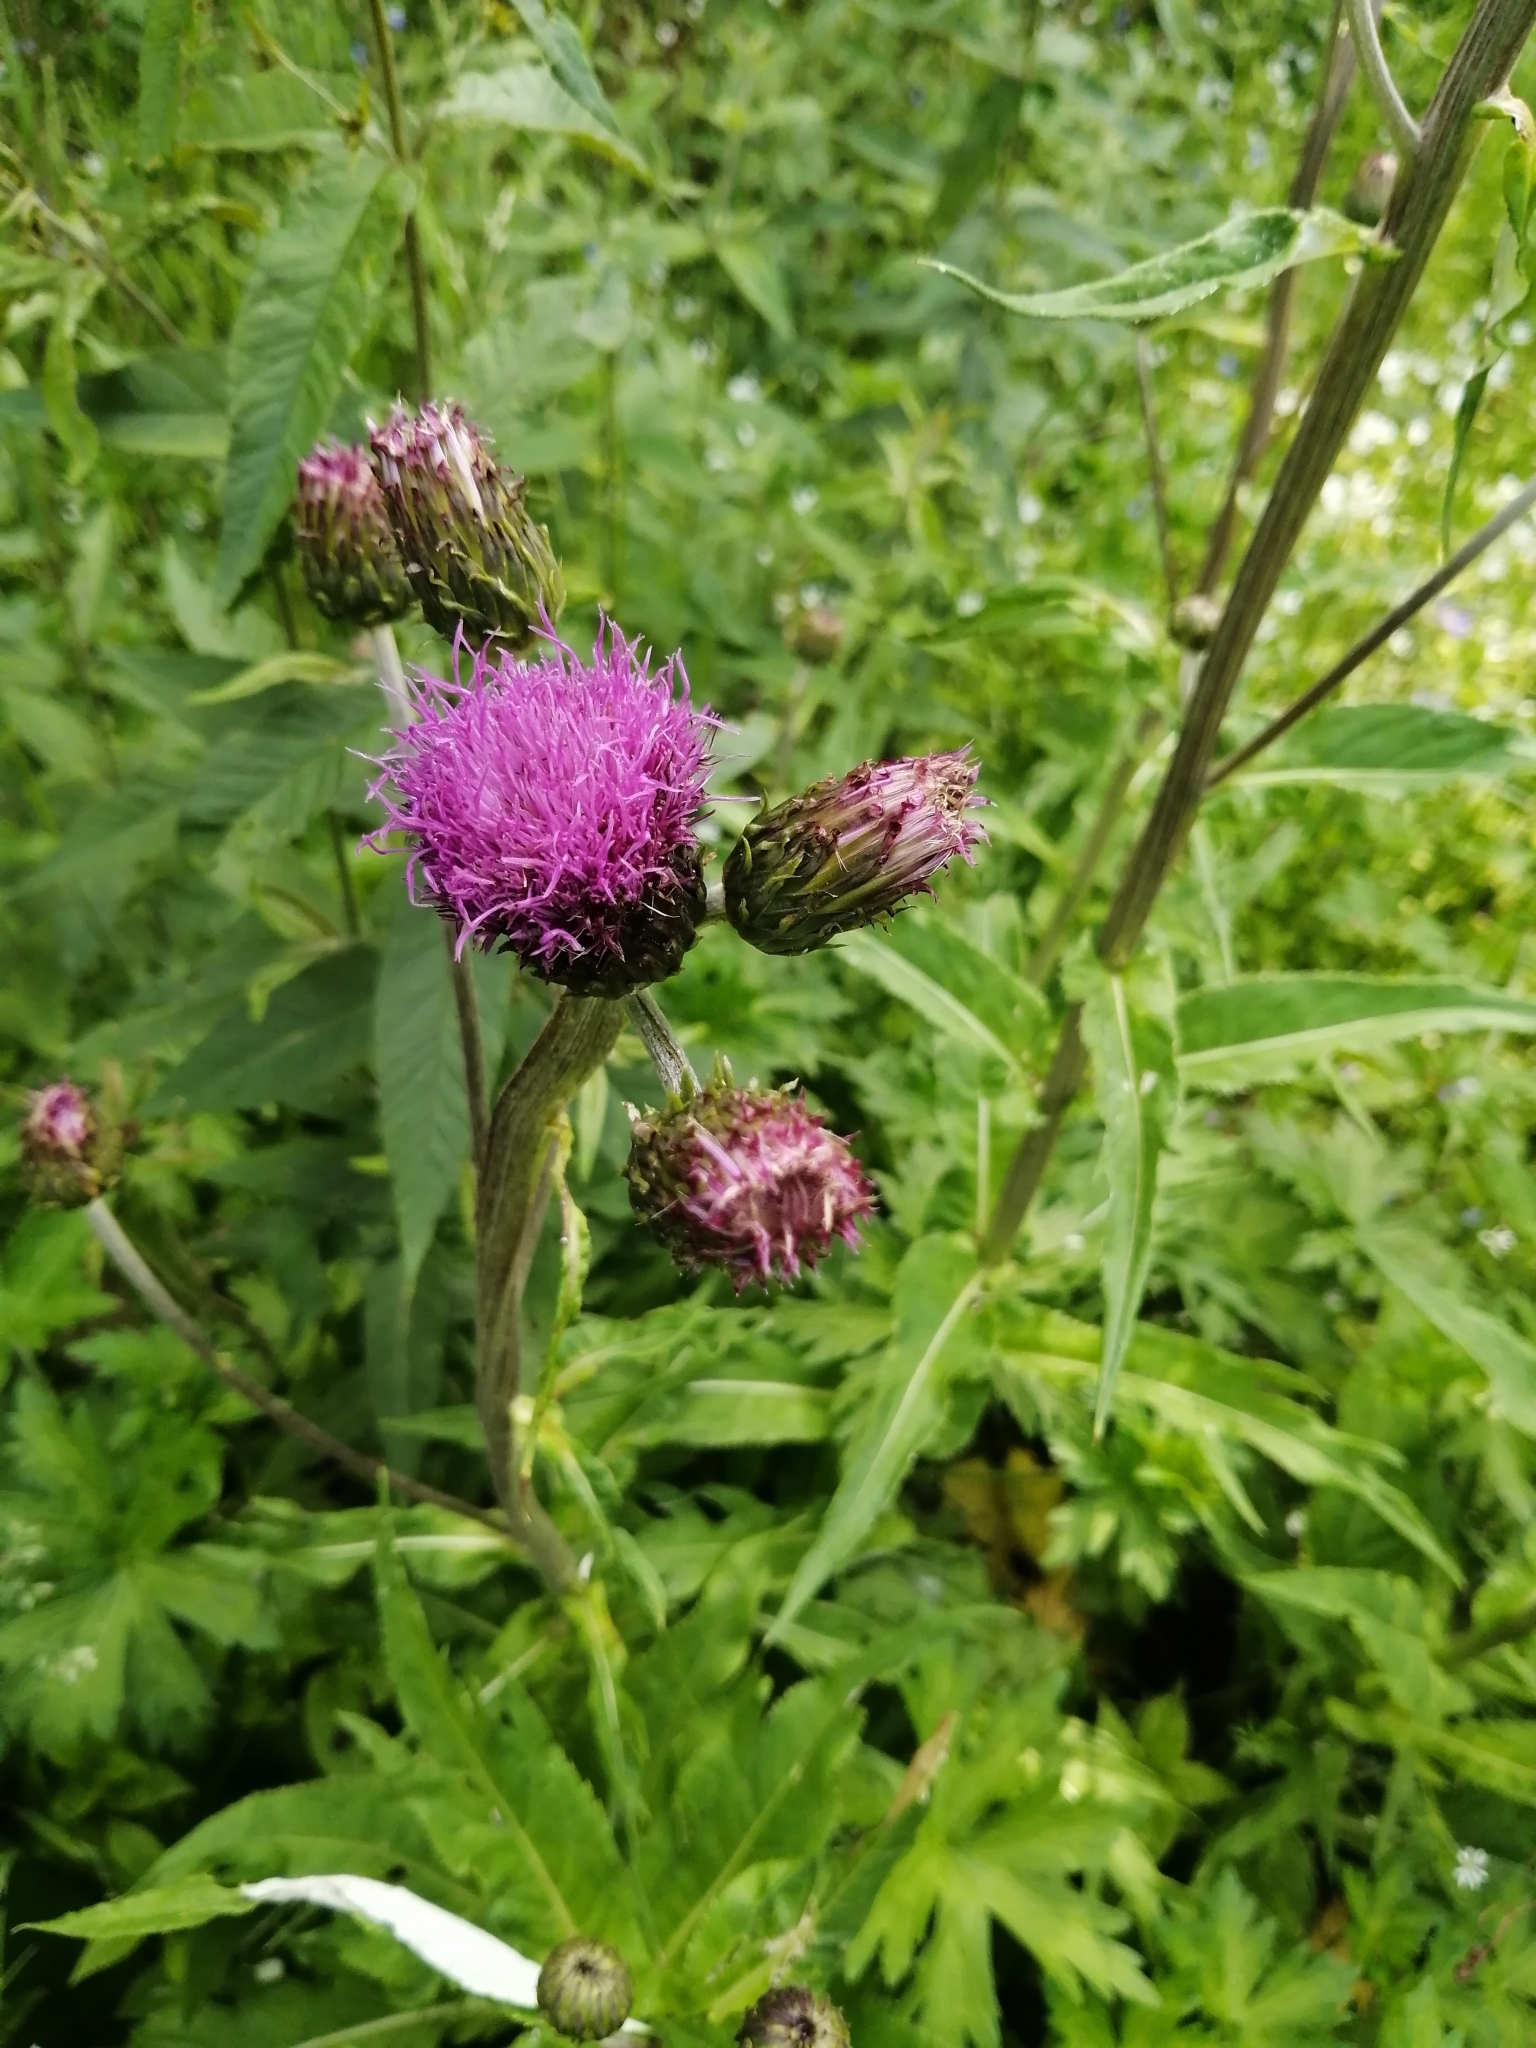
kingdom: Plantae
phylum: Tracheophyta
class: Magnoliopsida
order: Asterales
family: Asteraceae
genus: Cirsium
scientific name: Cirsium heterophyllum
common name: Melancholy thistle
